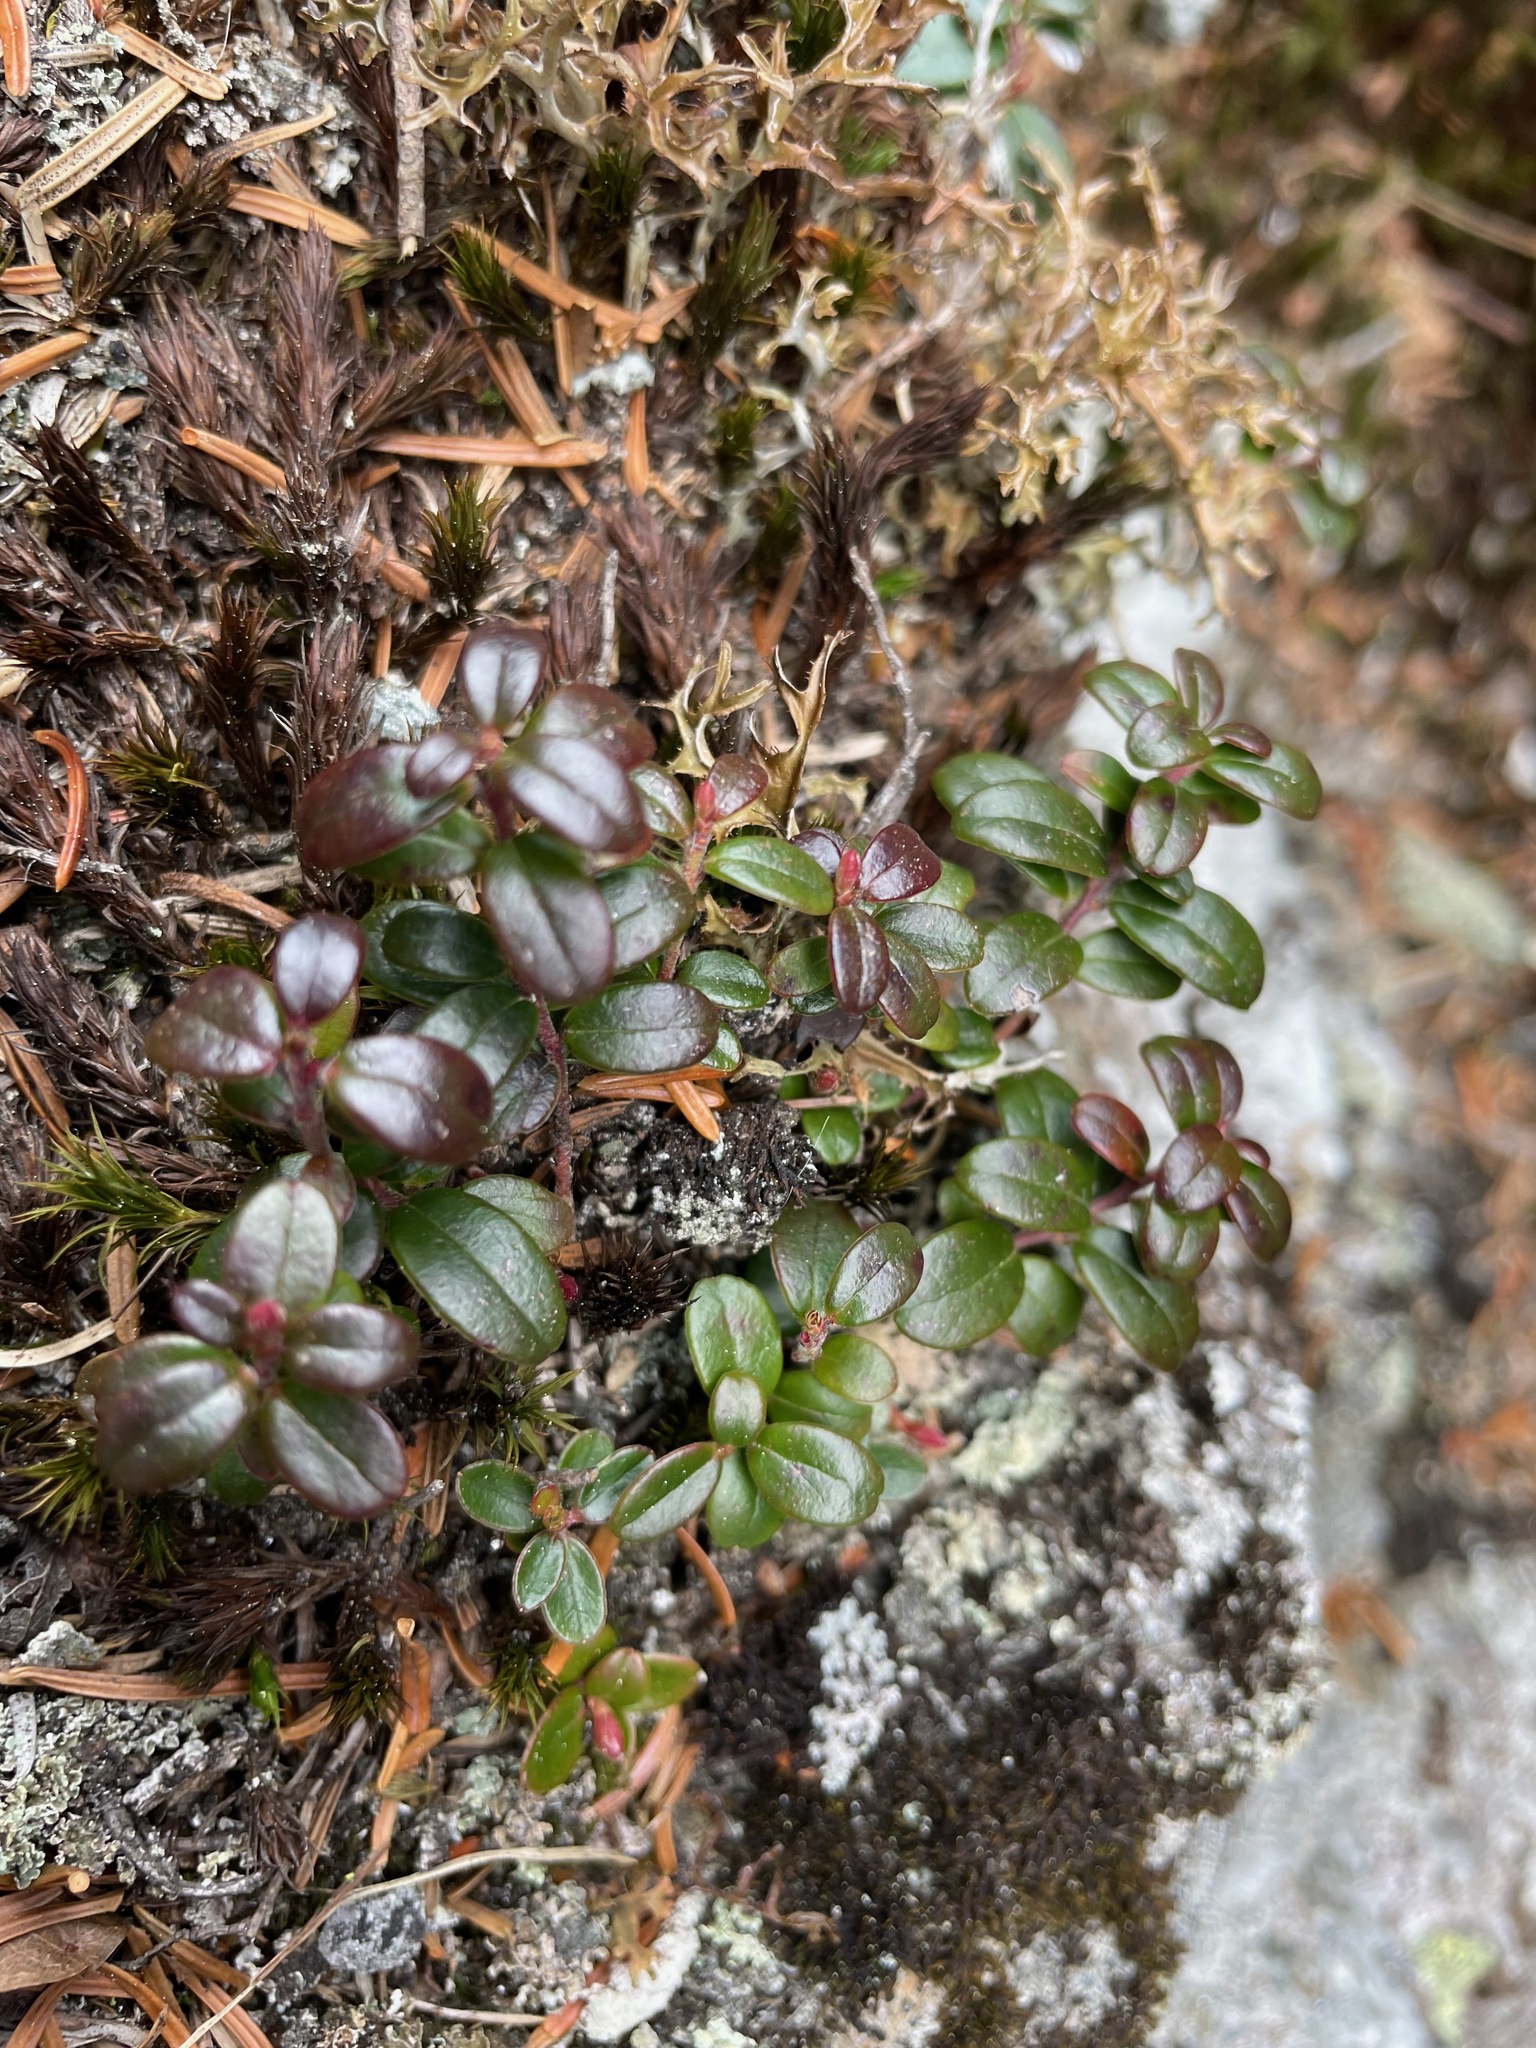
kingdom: Plantae
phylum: Tracheophyta
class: Magnoliopsida
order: Ericales
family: Ericaceae
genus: Vaccinium
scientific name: Vaccinium vitis-idaea
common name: Cowberry
